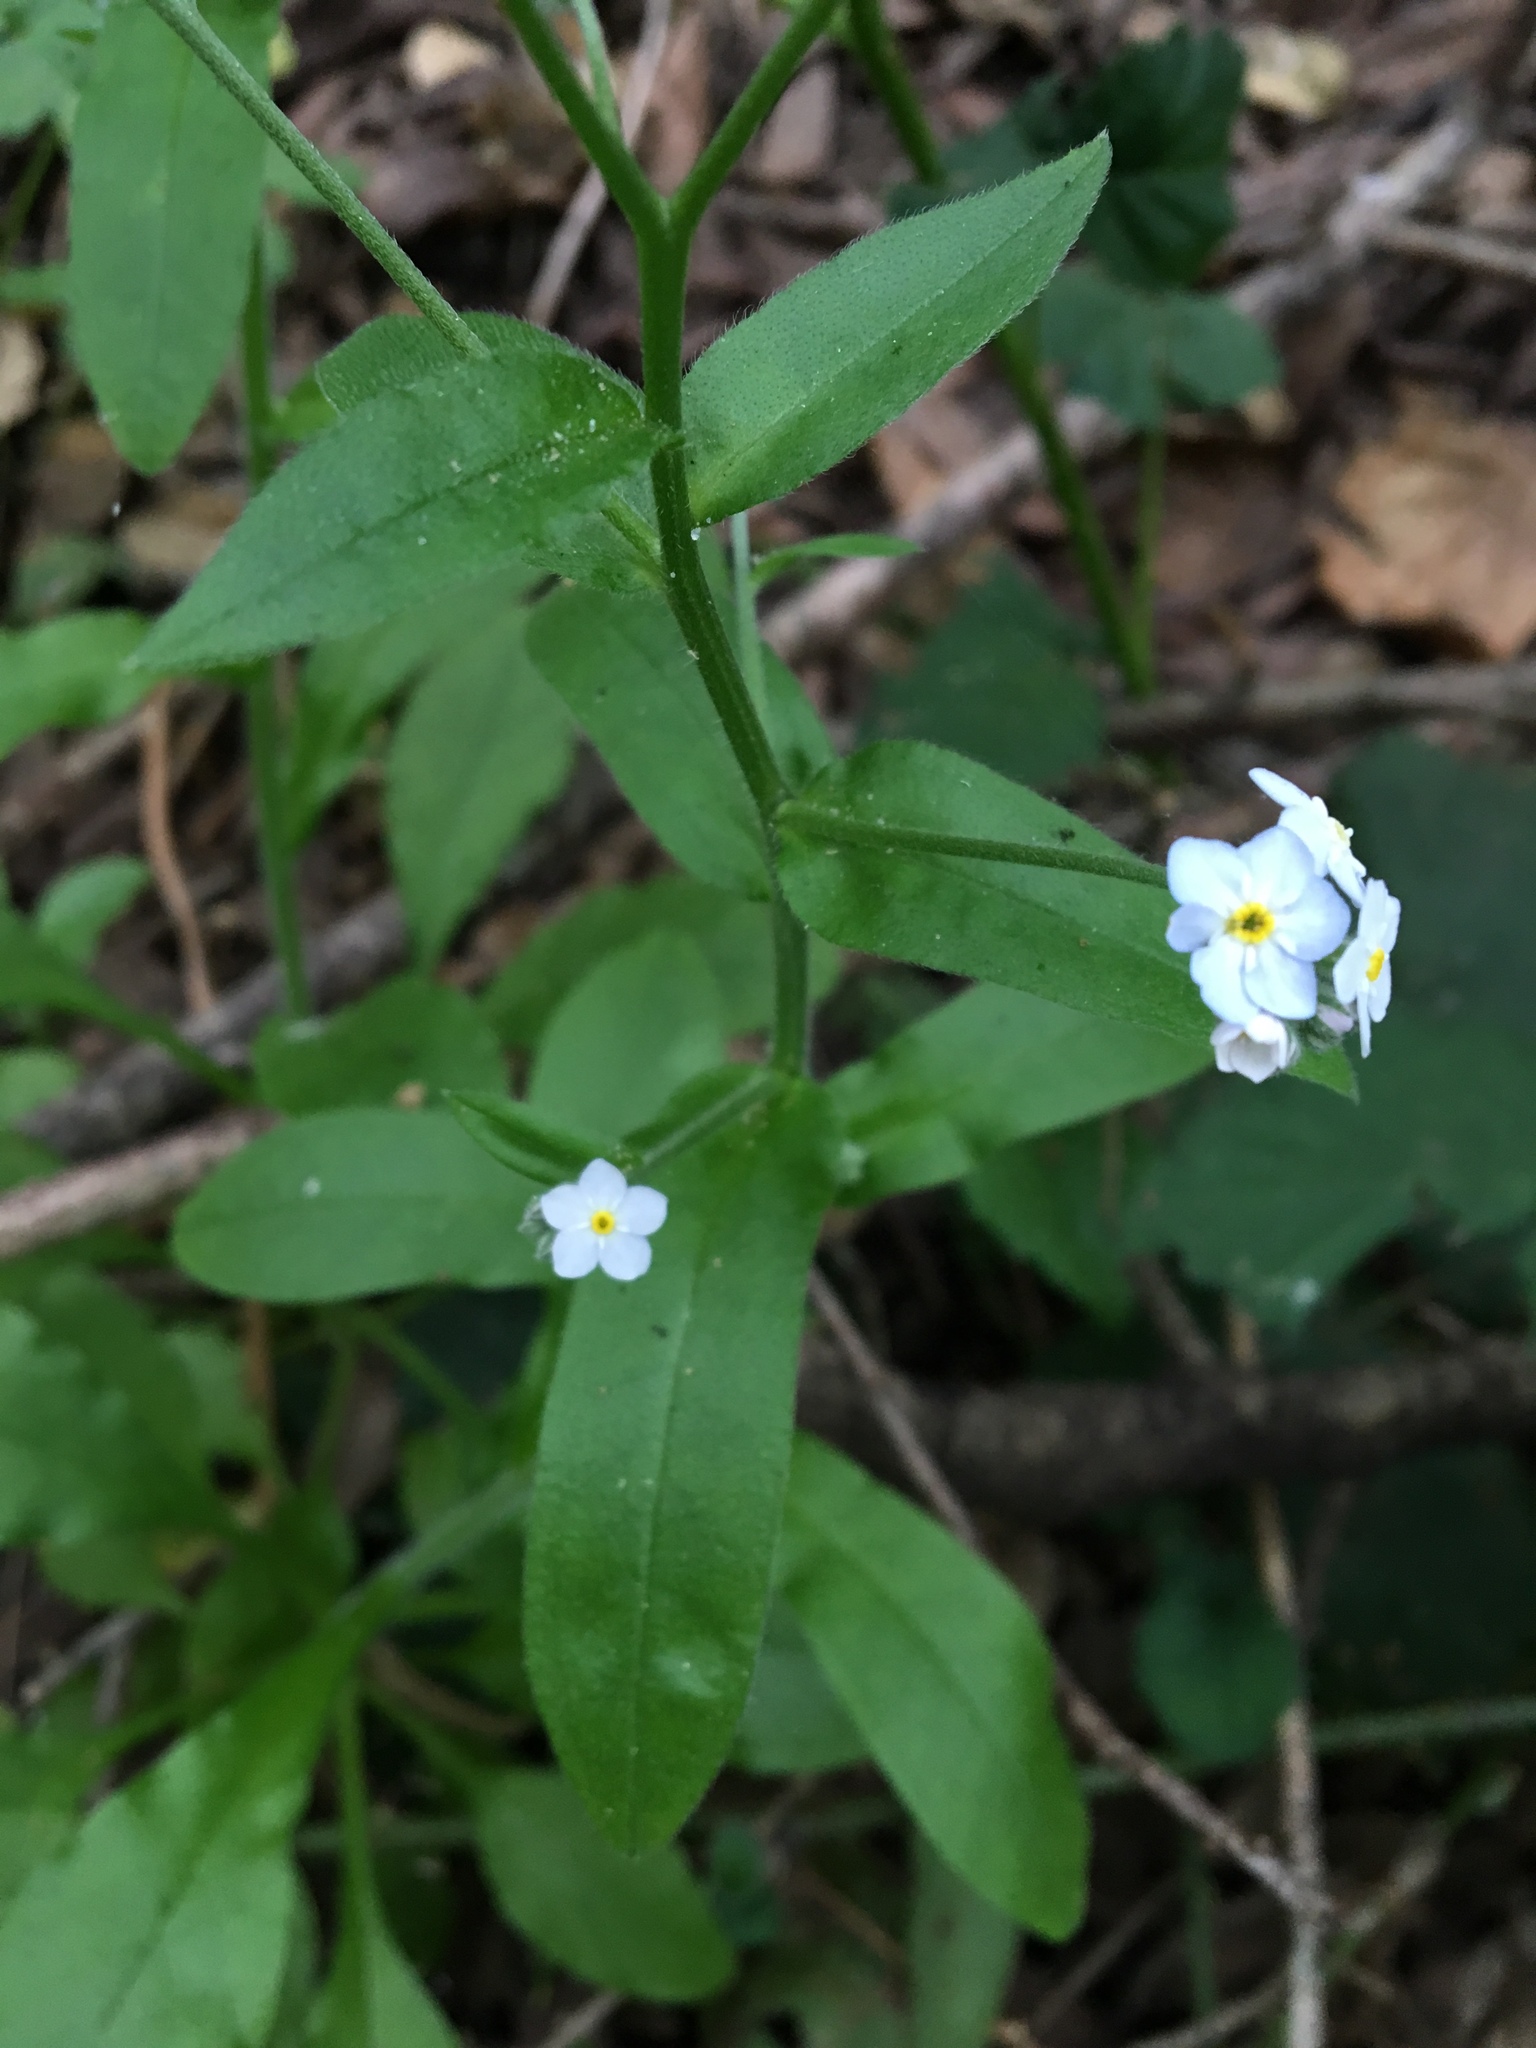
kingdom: Plantae
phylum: Tracheophyta
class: Magnoliopsida
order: Boraginales
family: Boraginaceae
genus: Myosotis
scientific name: Myosotis latifolia
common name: Broadleaf forget-me-not
